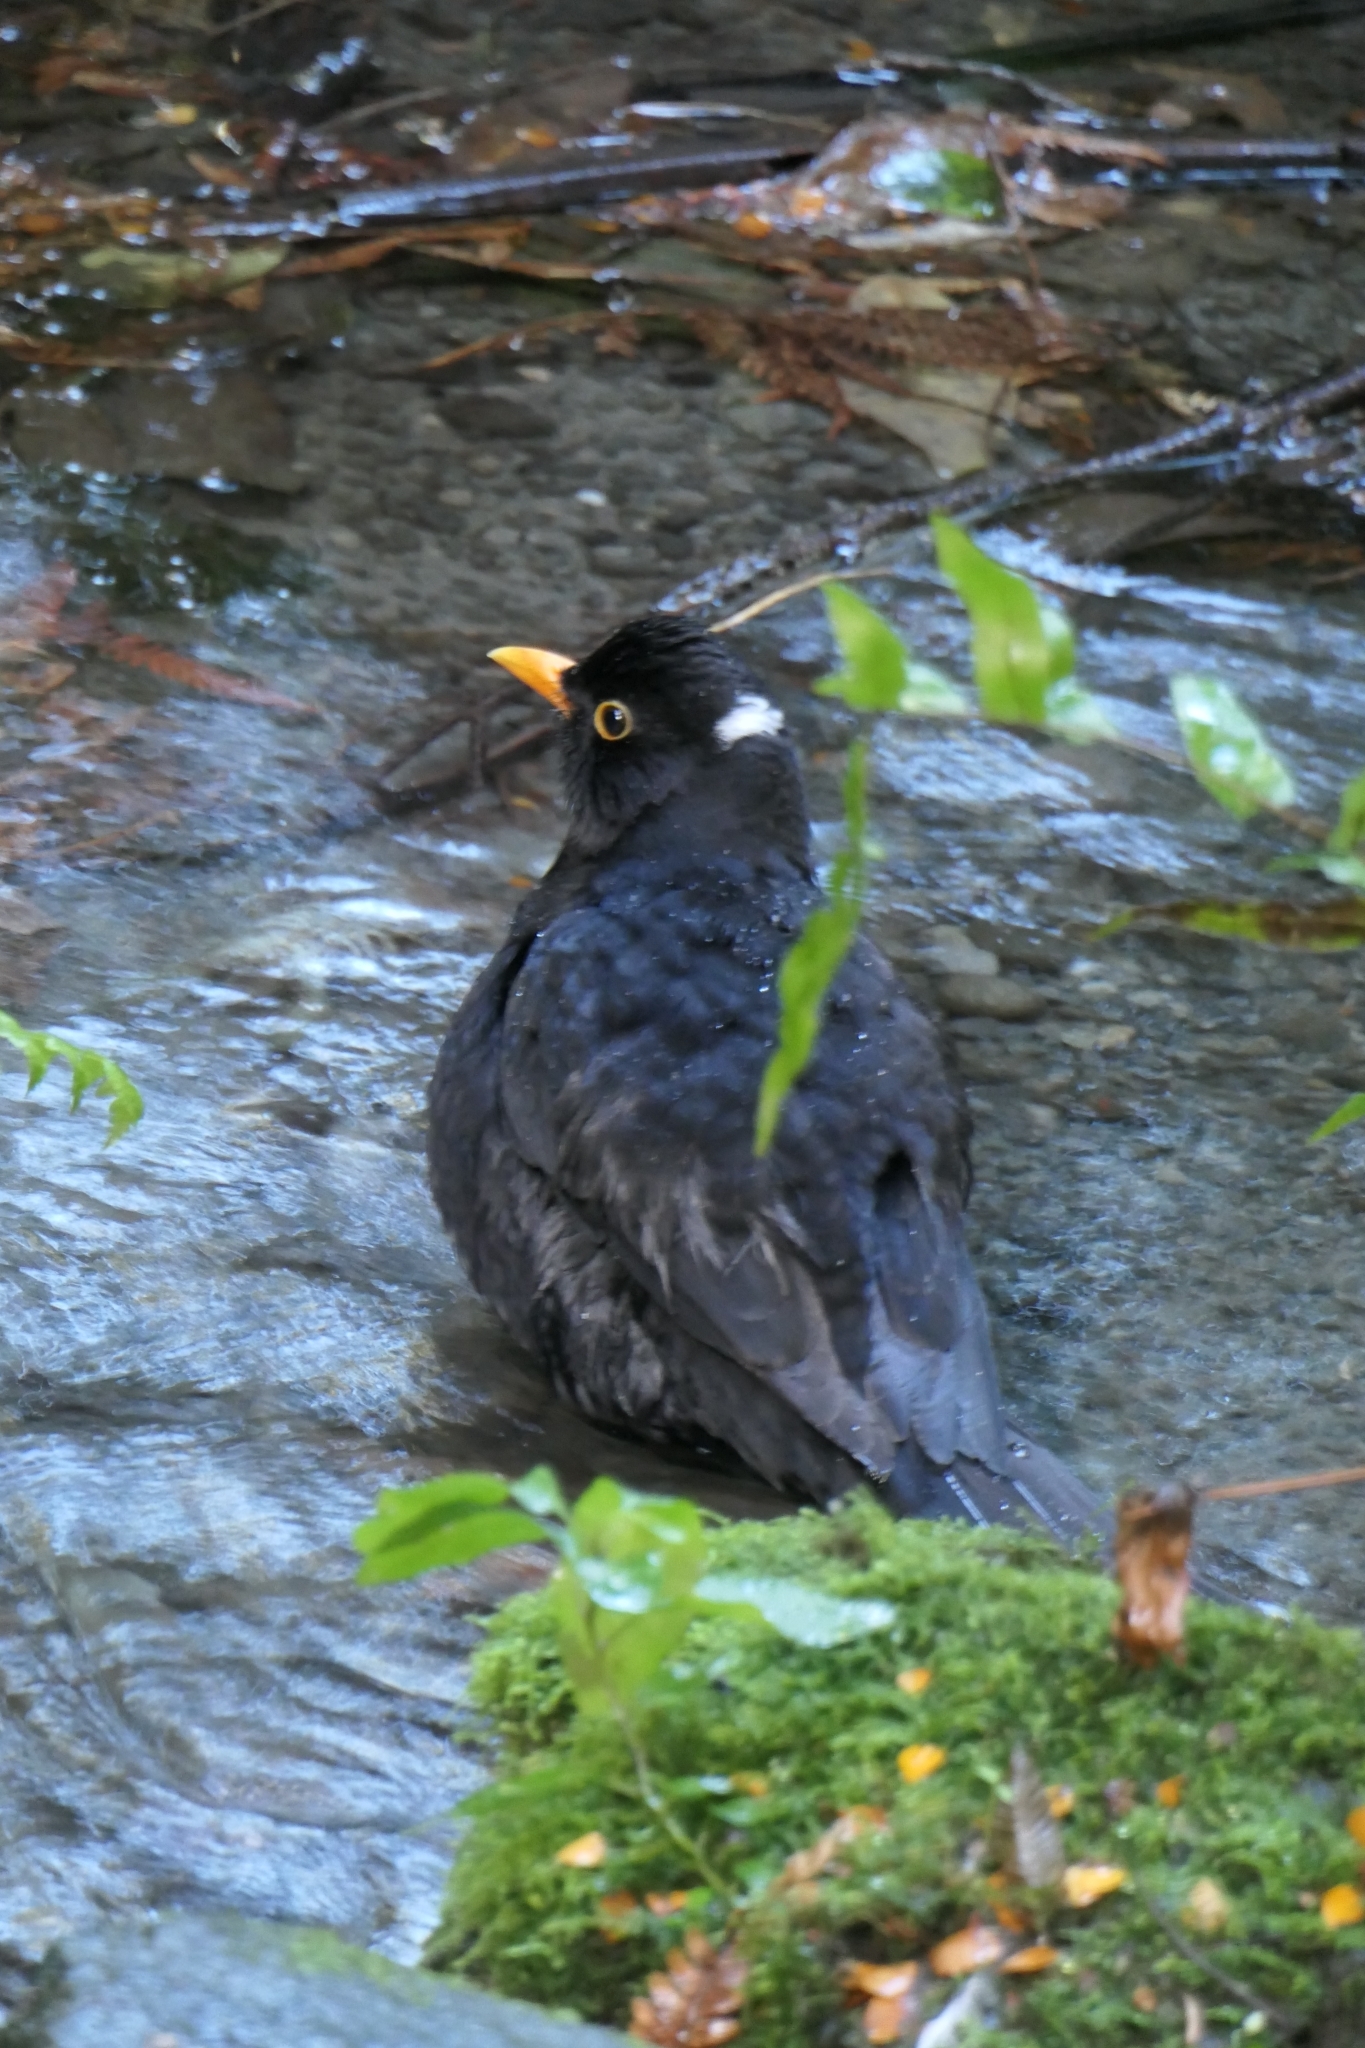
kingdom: Animalia
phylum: Chordata
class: Aves
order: Passeriformes
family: Turdidae
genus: Turdus
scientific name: Turdus merula
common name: Common blackbird
